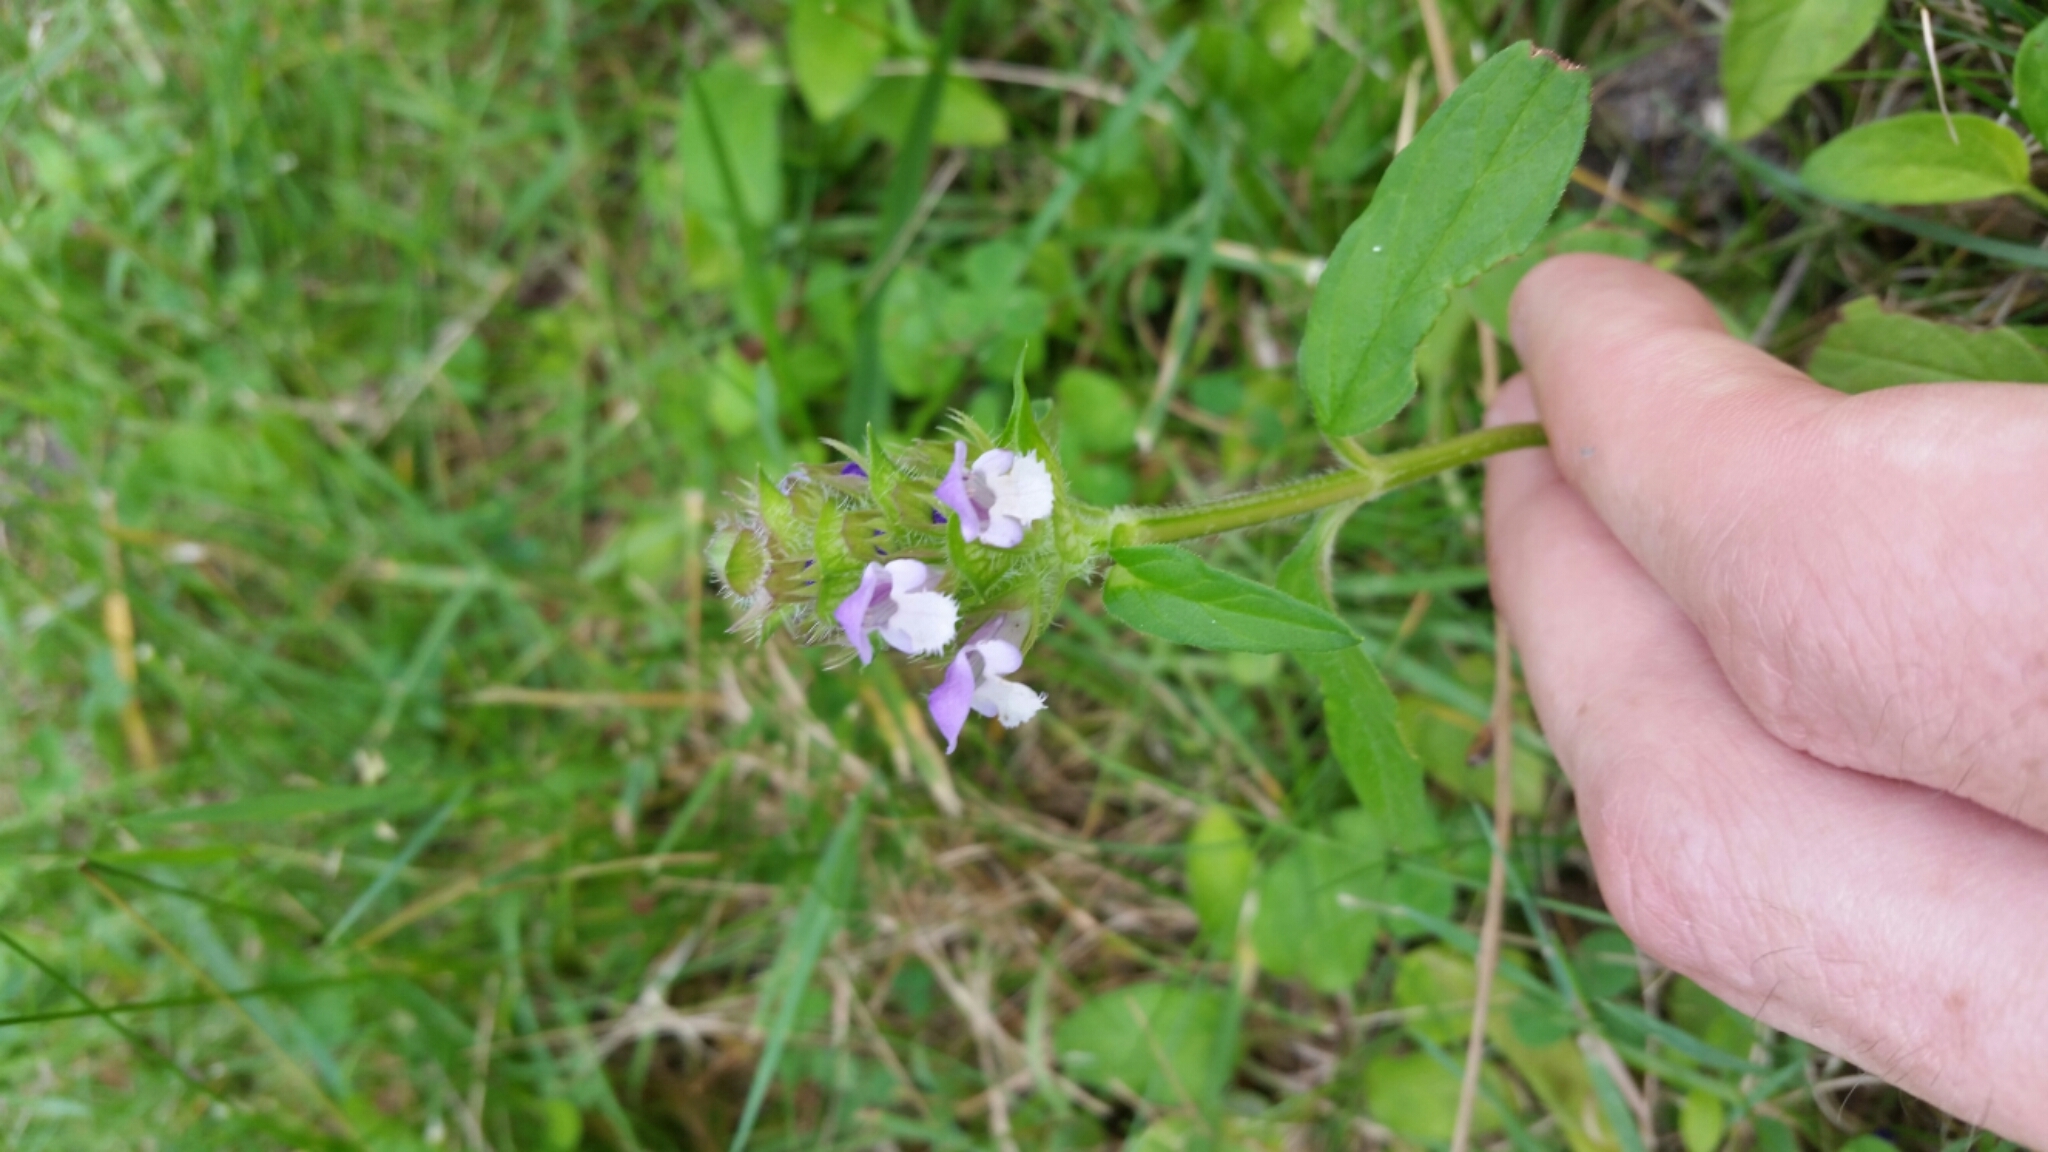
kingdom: Plantae
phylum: Tracheophyta
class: Magnoliopsida
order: Lamiales
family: Lamiaceae
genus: Prunella
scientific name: Prunella vulgaris
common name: Heal-all
